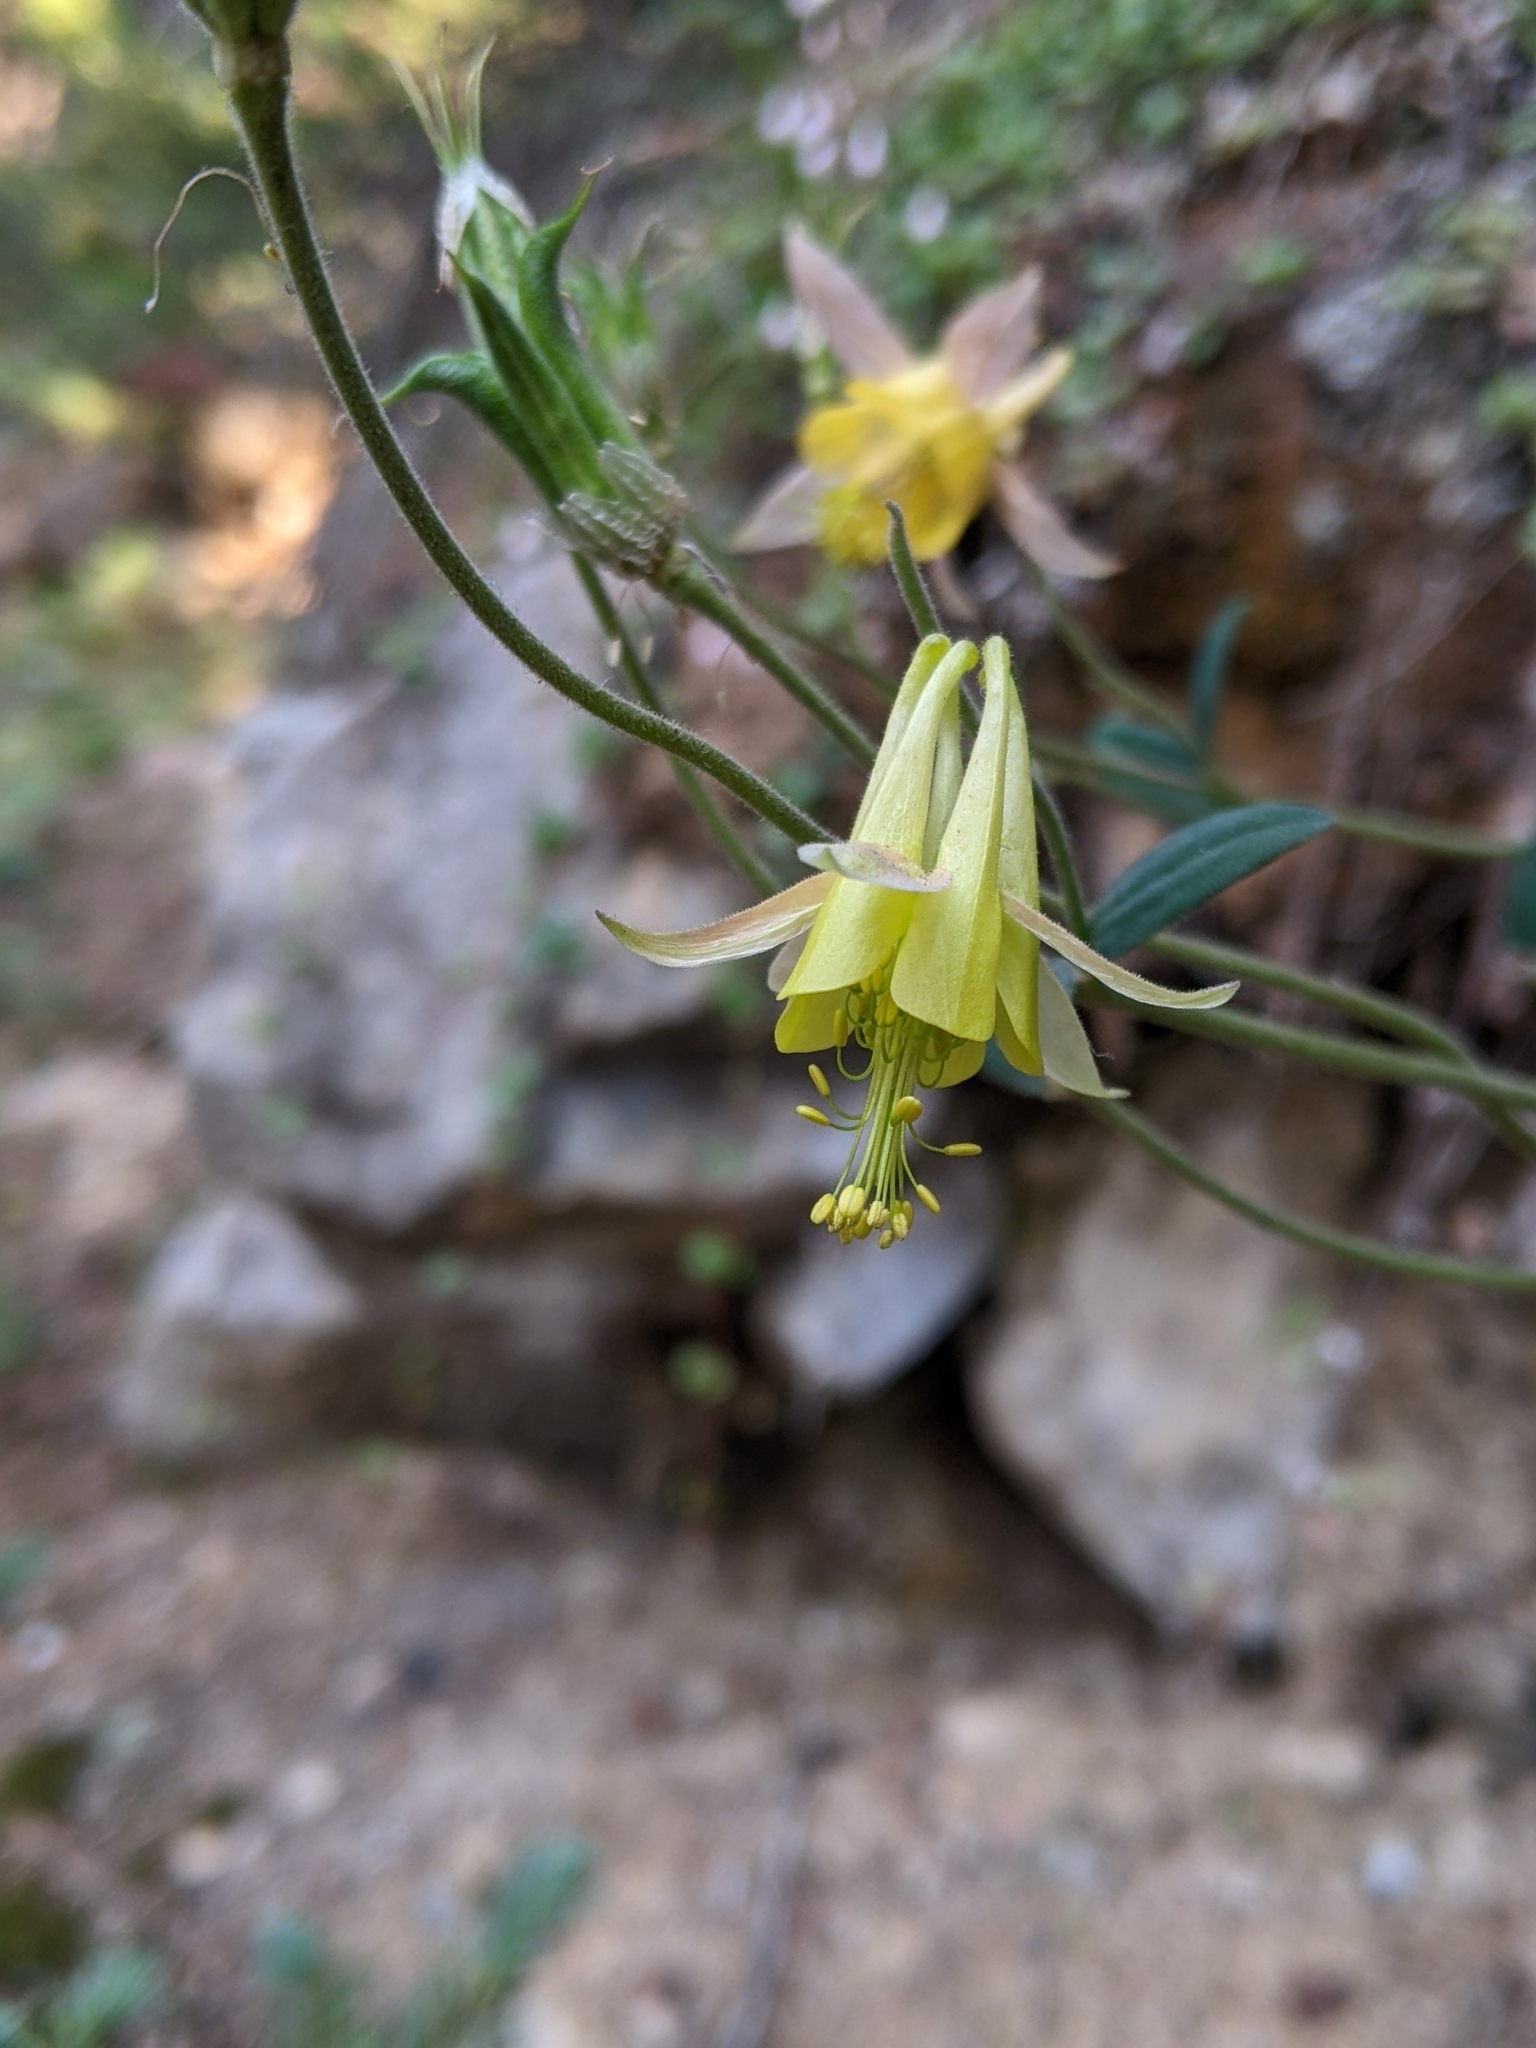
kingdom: Plantae
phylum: Tracheophyta
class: Magnoliopsida
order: Ranunculales
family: Ranunculaceae
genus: Aquilegia
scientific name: Aquilegia flavescens
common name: Yellow columbine
